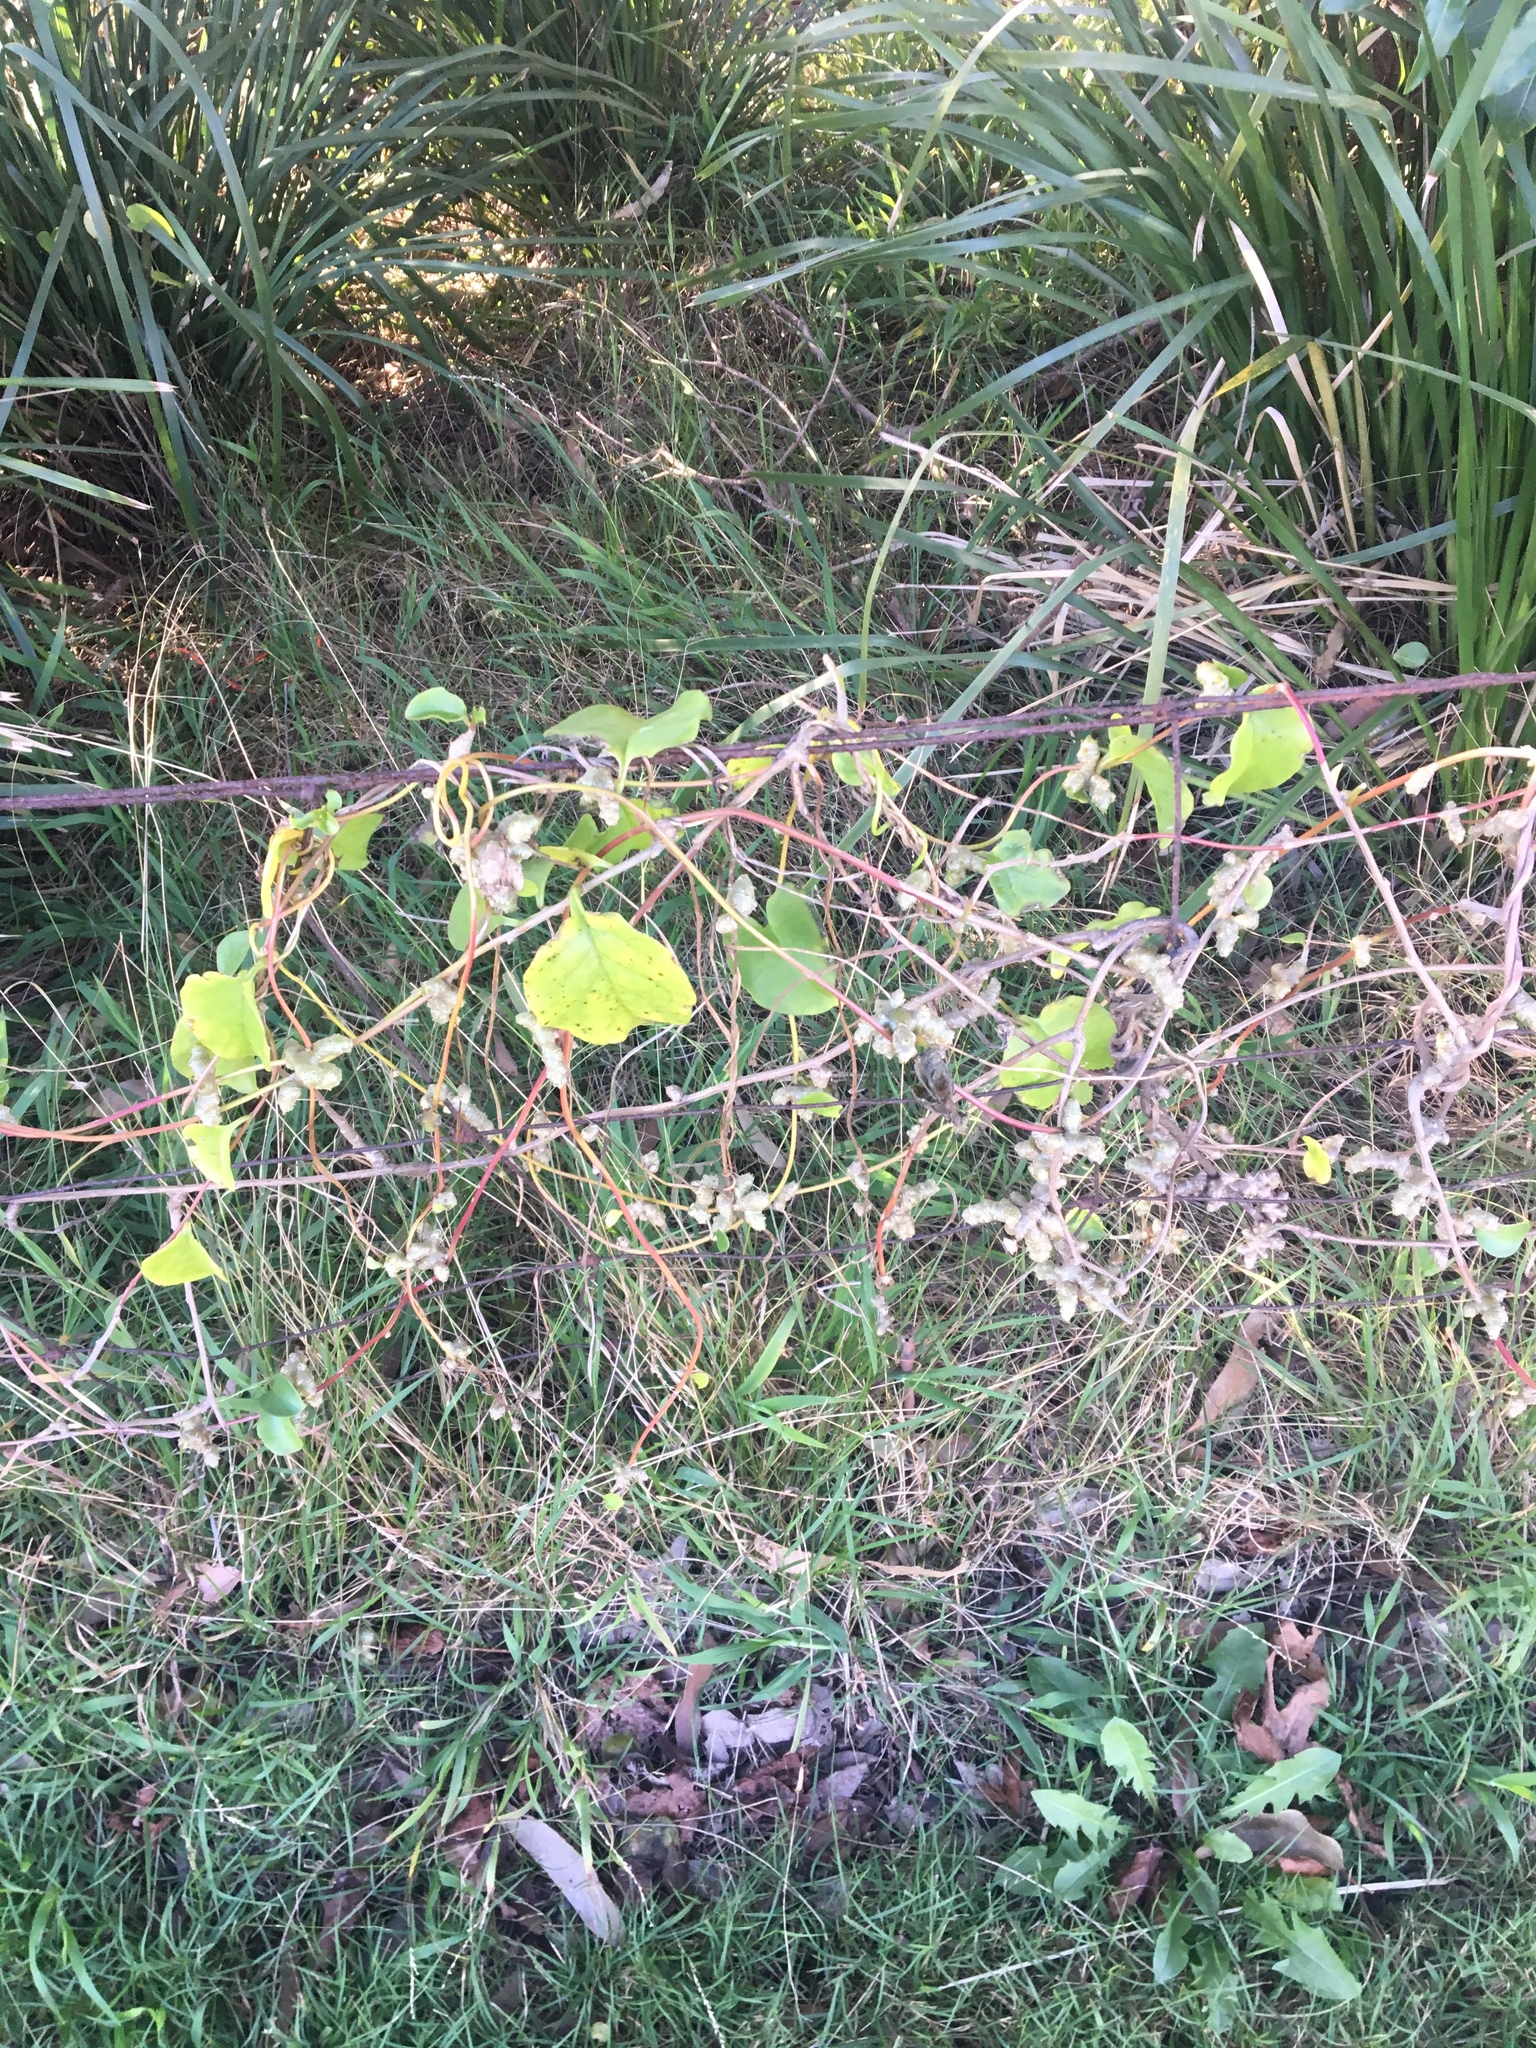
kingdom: Plantae
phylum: Tracheophyta
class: Magnoliopsida
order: Caryophyllales
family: Basellaceae
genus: Anredera
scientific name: Anredera cordifolia
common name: Heartleaf madeiravine
